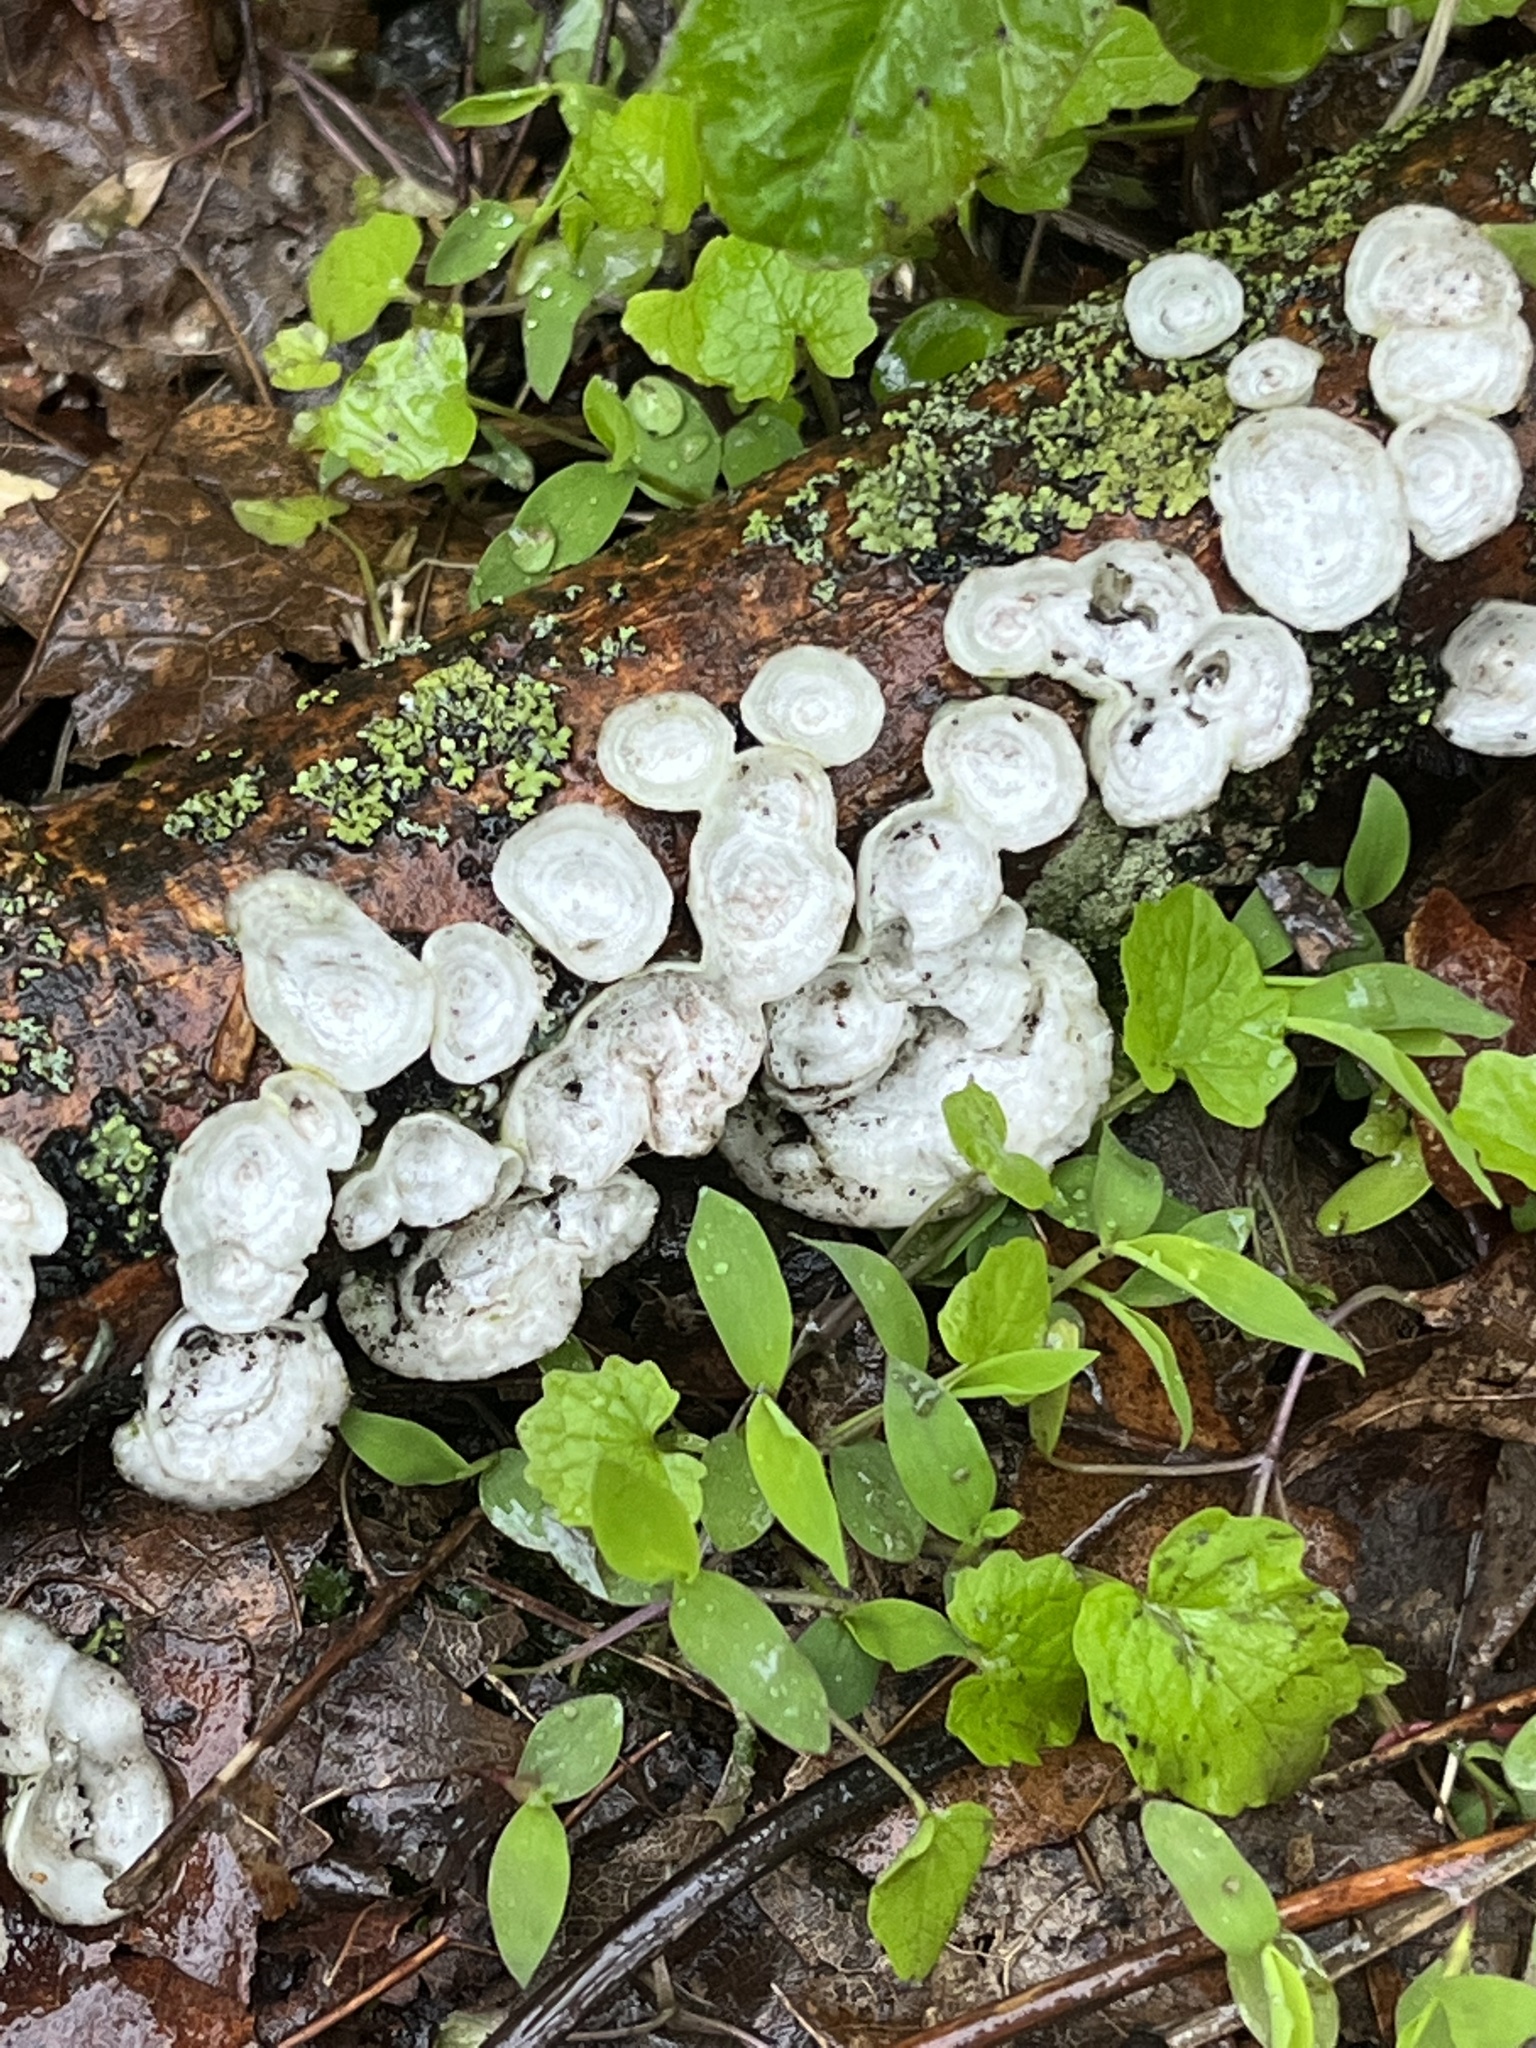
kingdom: Fungi
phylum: Basidiomycota
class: Agaricomycetes
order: Polyporales
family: Polyporaceae
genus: Poronidulus
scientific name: Poronidulus conchifer
